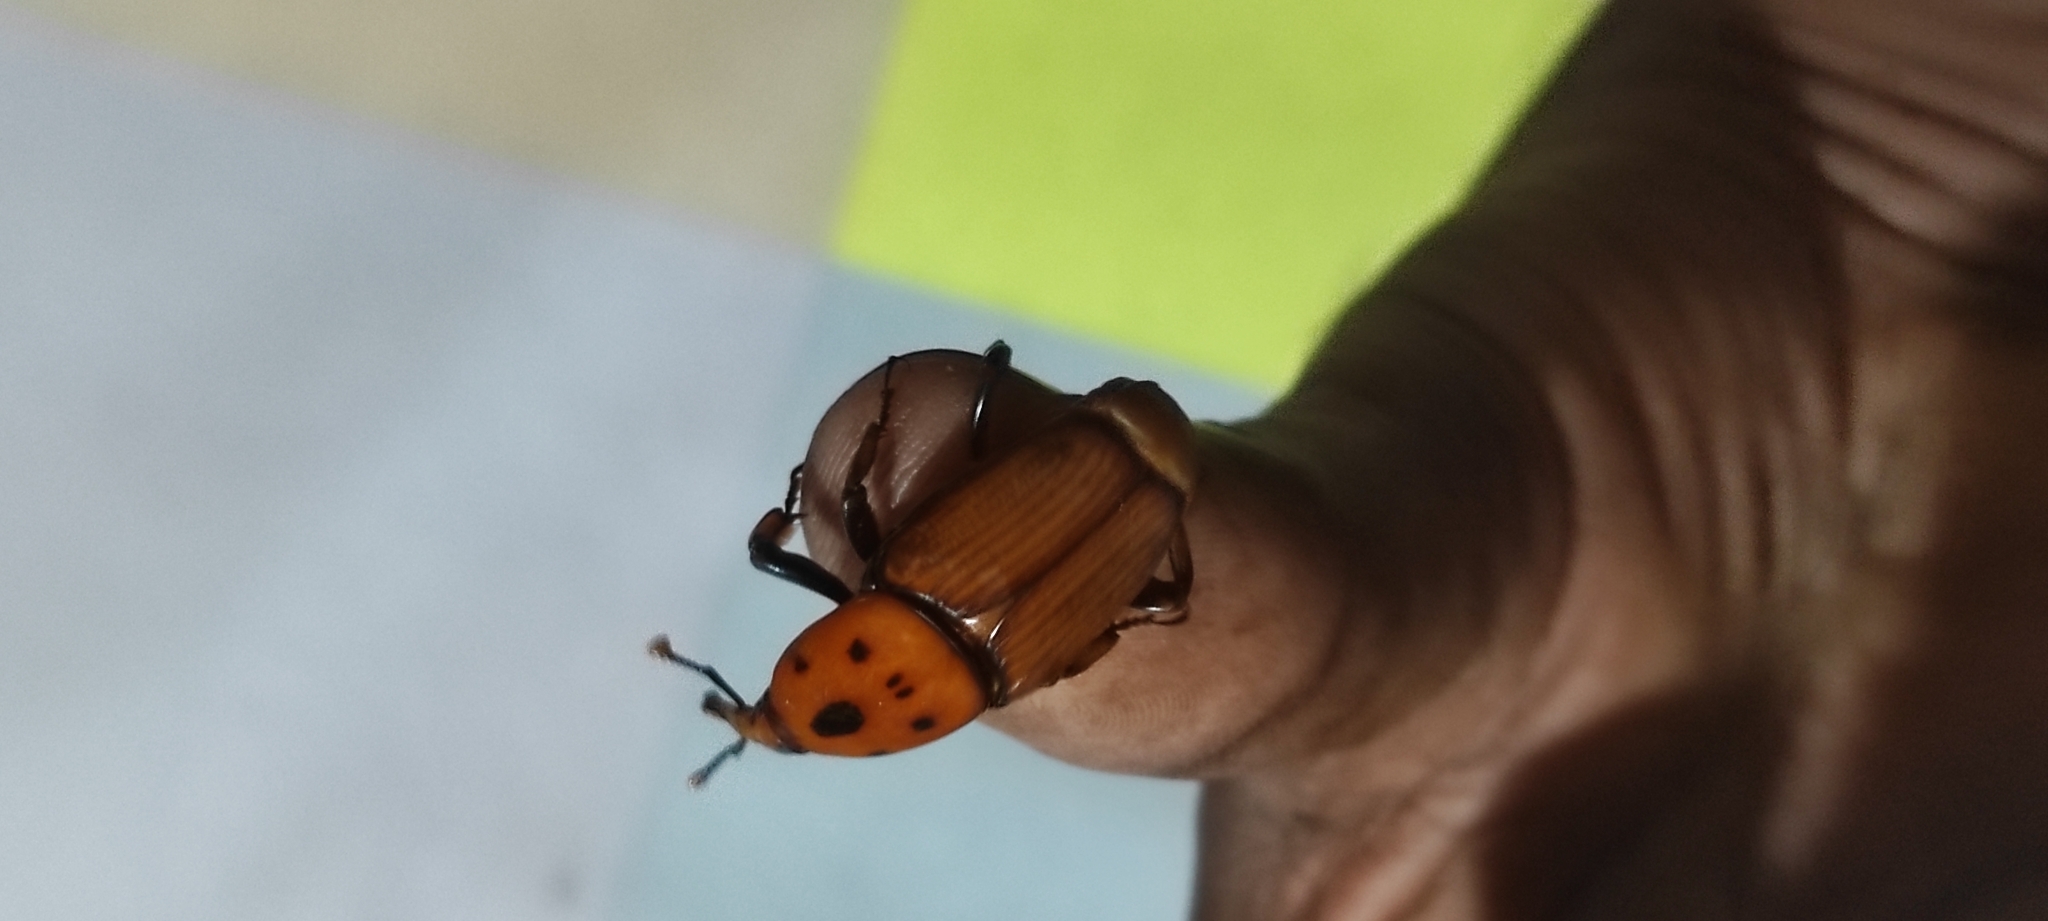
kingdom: Animalia
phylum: Arthropoda
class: Insecta
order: Coleoptera
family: Dryophthoridae
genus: Rhynchophorus
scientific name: Rhynchophorus ferrugineus
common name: Red palm weevil
